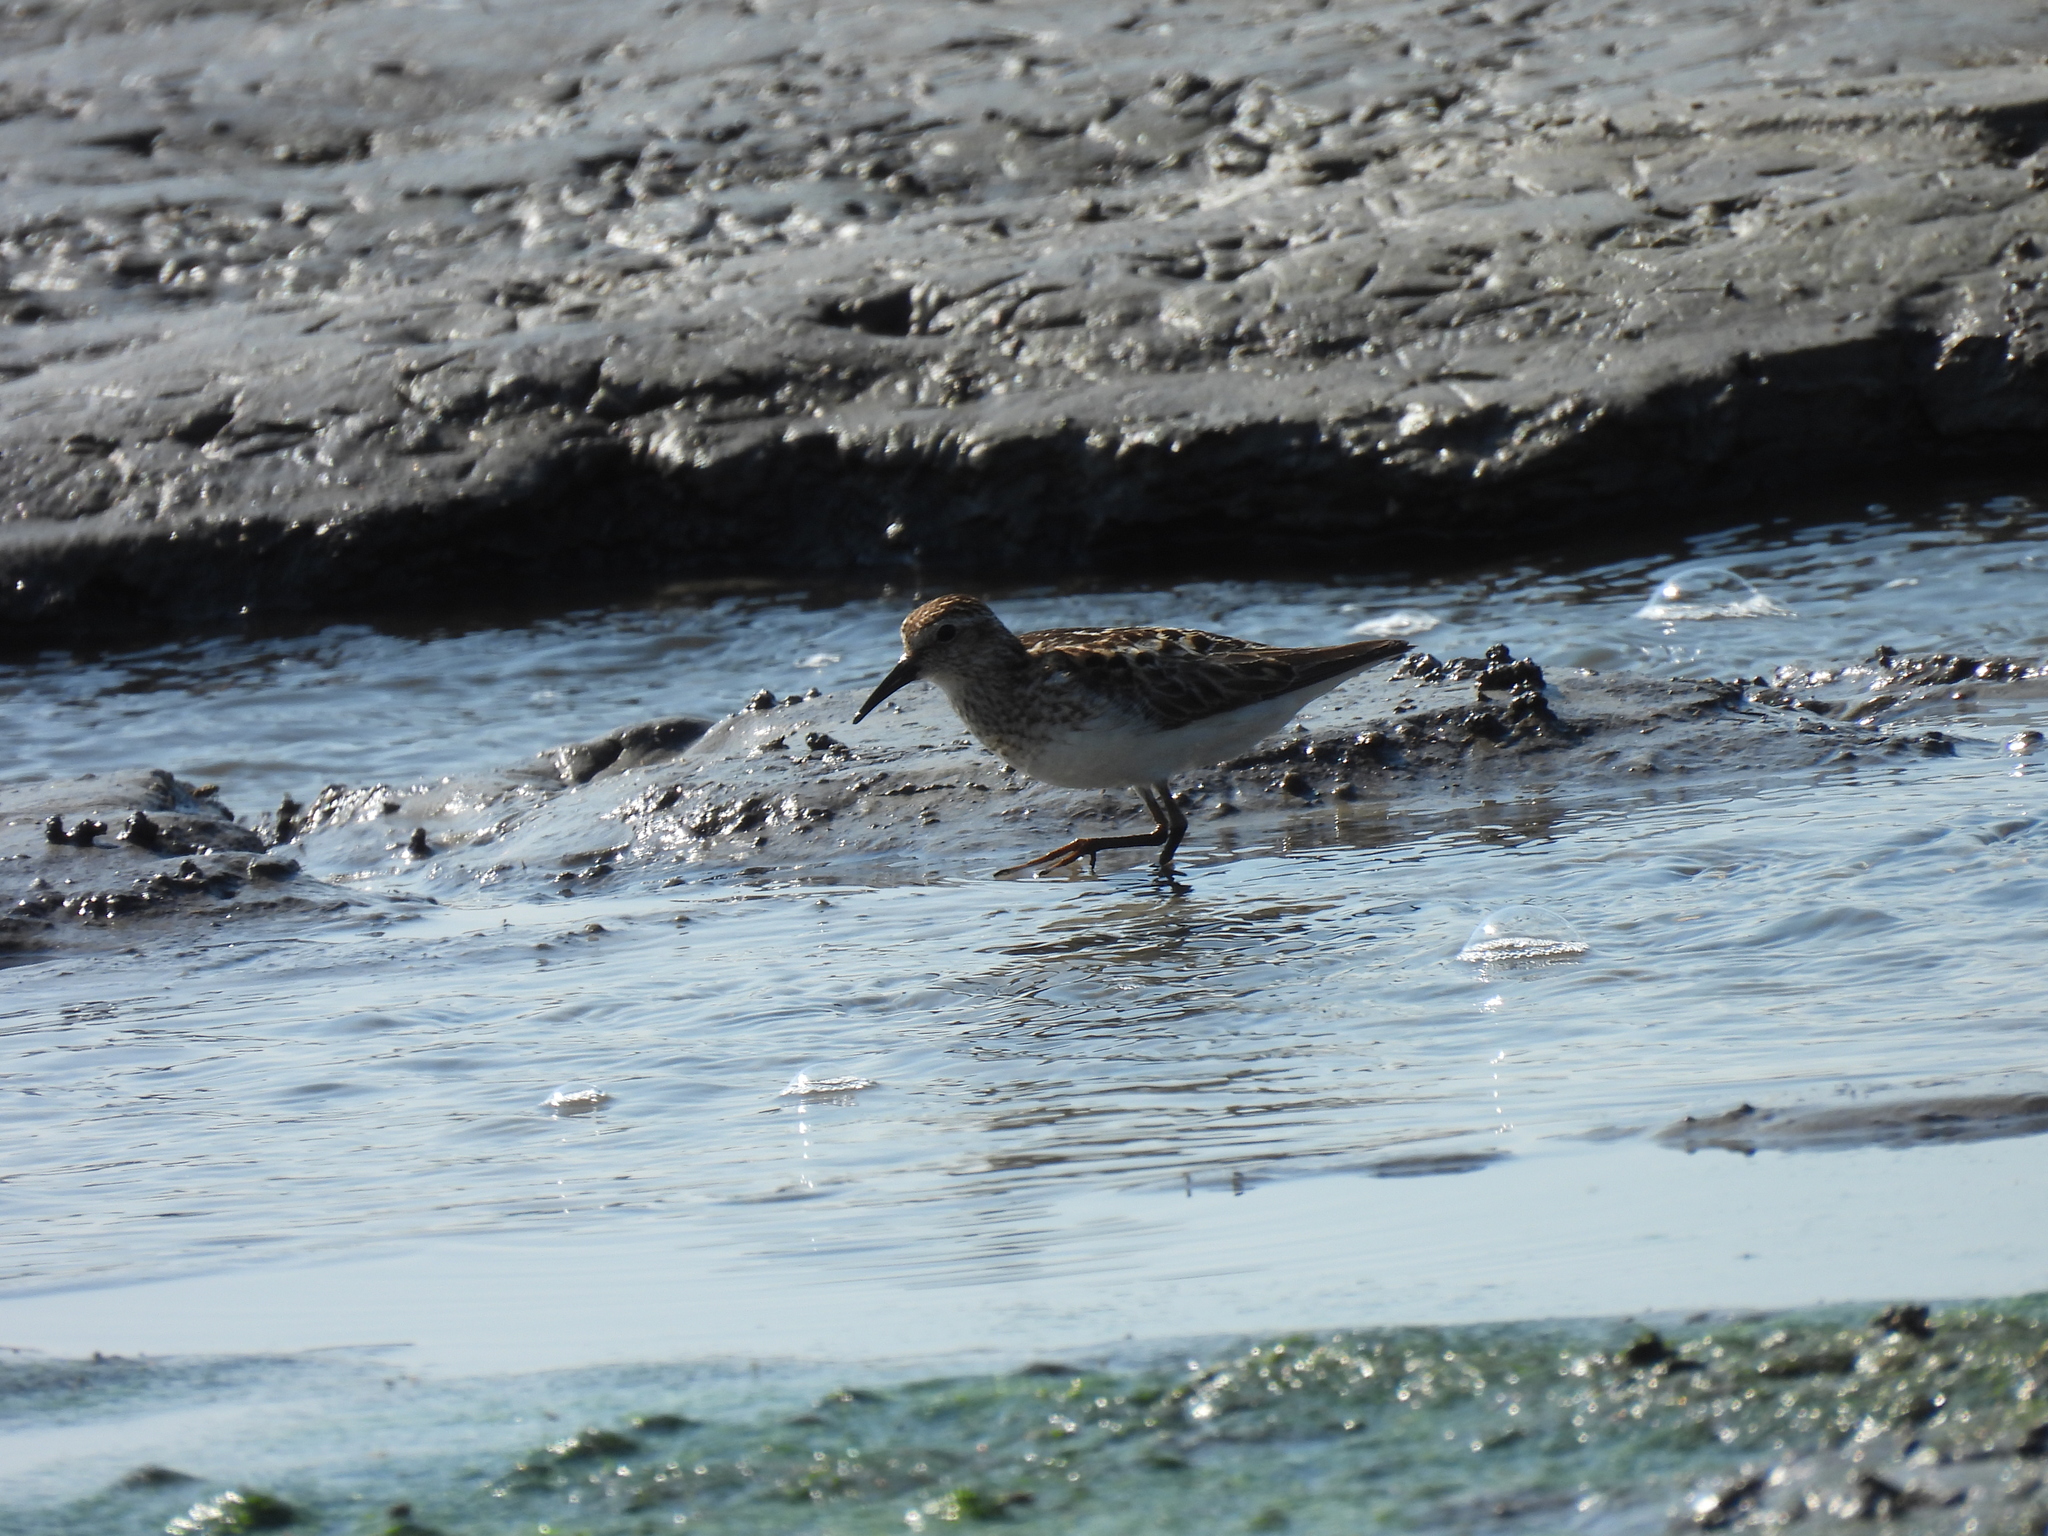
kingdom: Animalia
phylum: Chordata
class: Aves
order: Charadriiformes
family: Scolopacidae
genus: Calidris
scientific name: Calidris minutilla
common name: Least sandpiper
